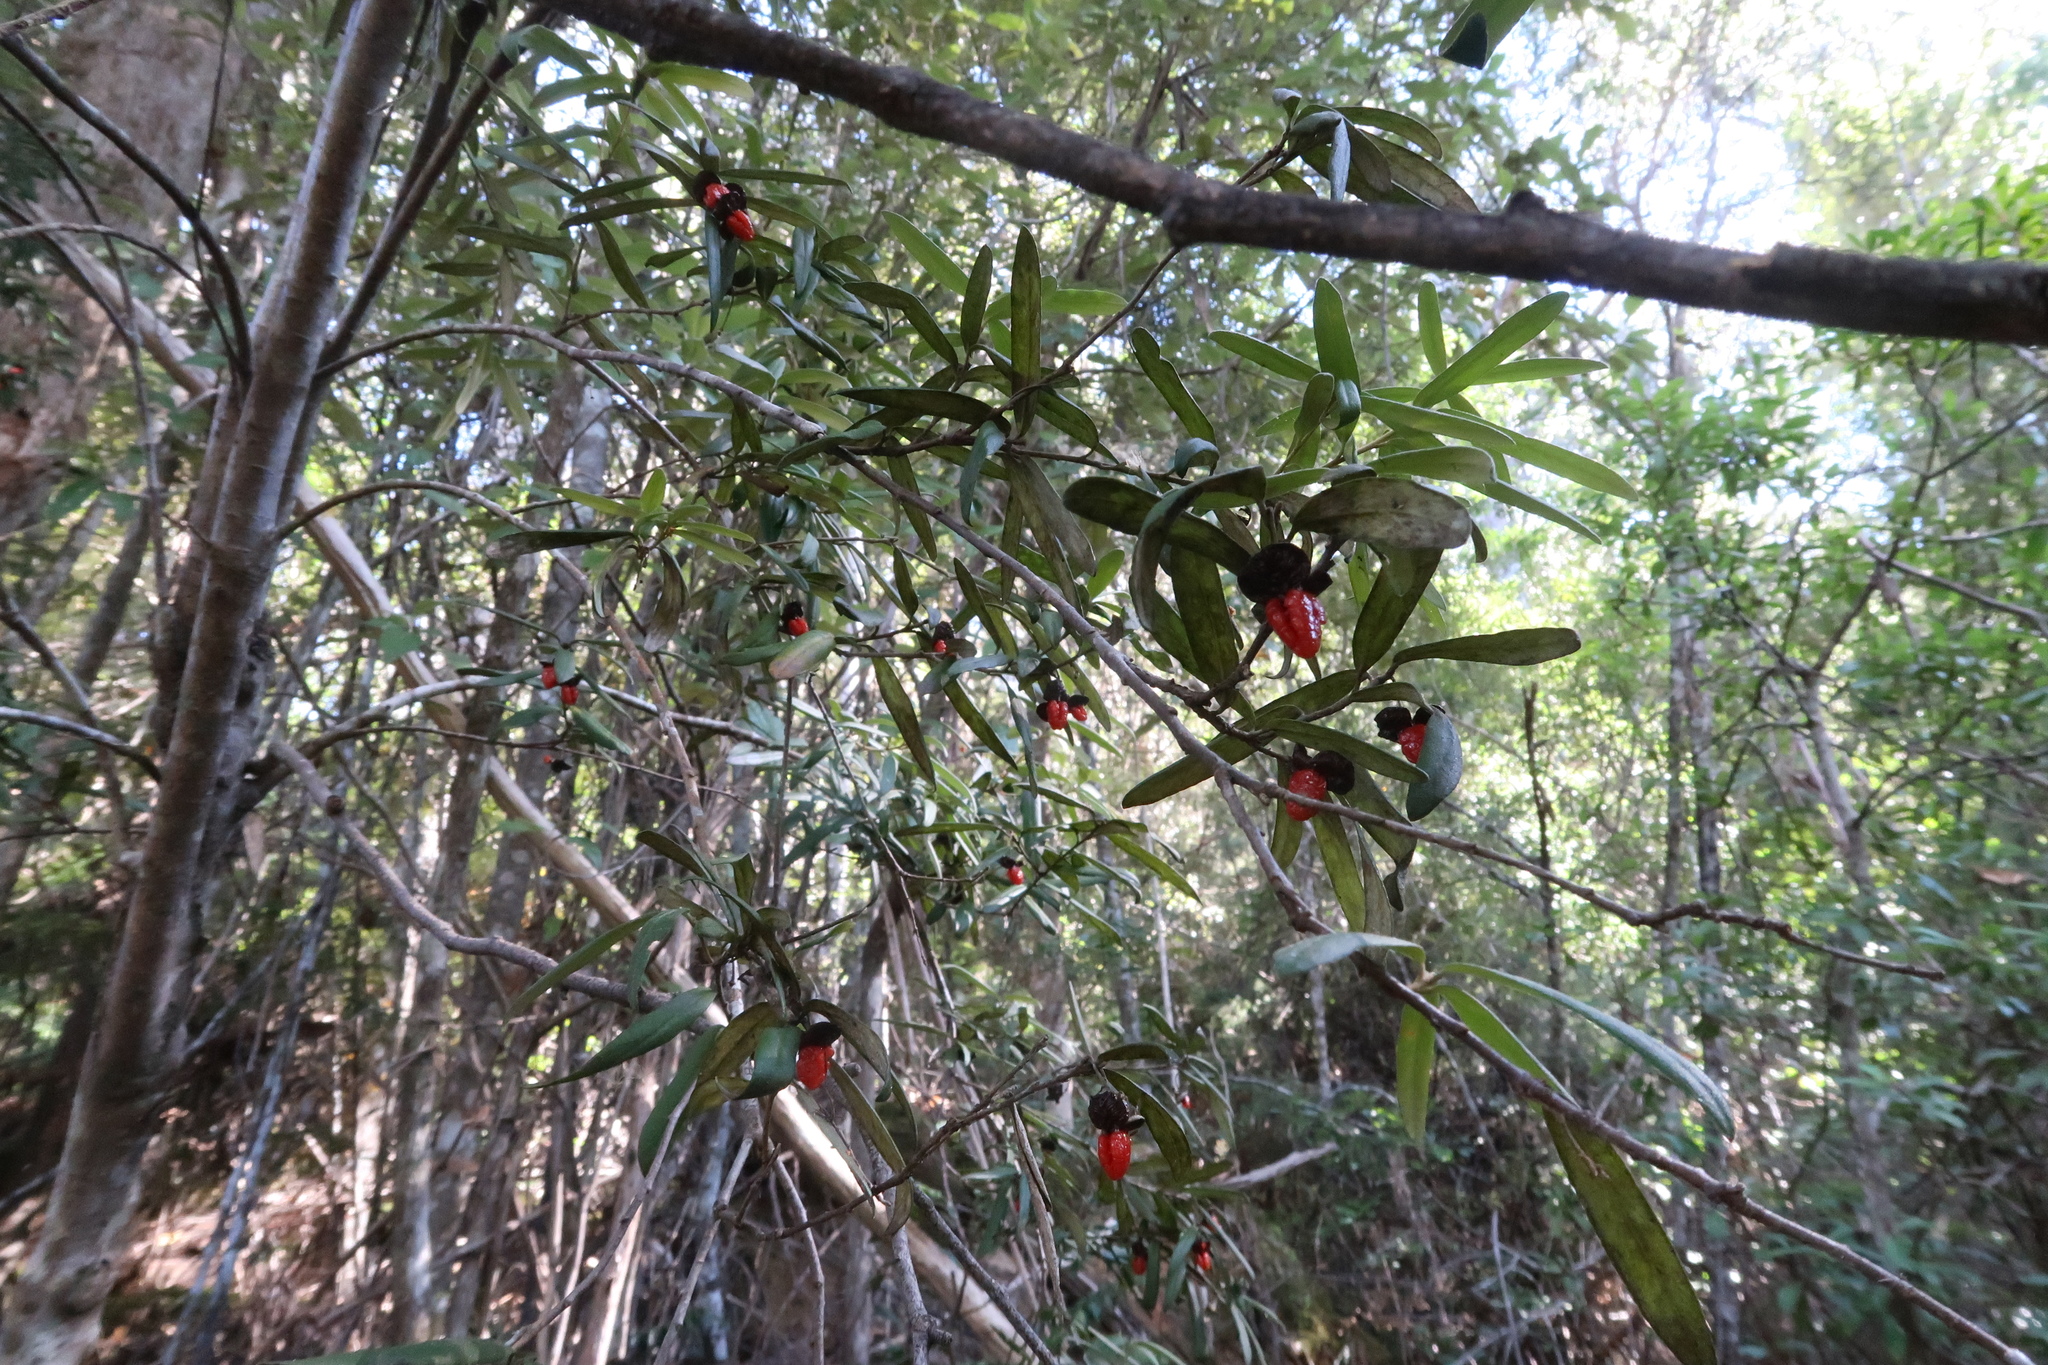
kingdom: Plantae
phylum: Tracheophyta
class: Magnoliopsida
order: Apiales
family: Pittosporaceae
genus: Pittosporum
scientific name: Pittosporum bicolor
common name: Tallowwood
